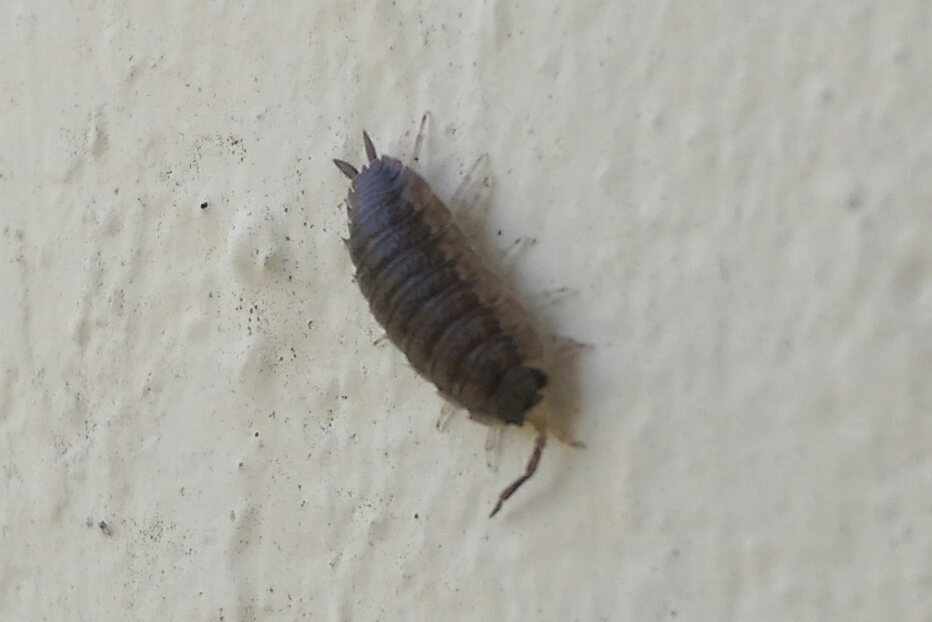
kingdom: Animalia
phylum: Arthropoda
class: Malacostraca
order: Isopoda
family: Porcellionidae
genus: Porcellio
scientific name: Porcellio scaber
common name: Common rough woodlouse
